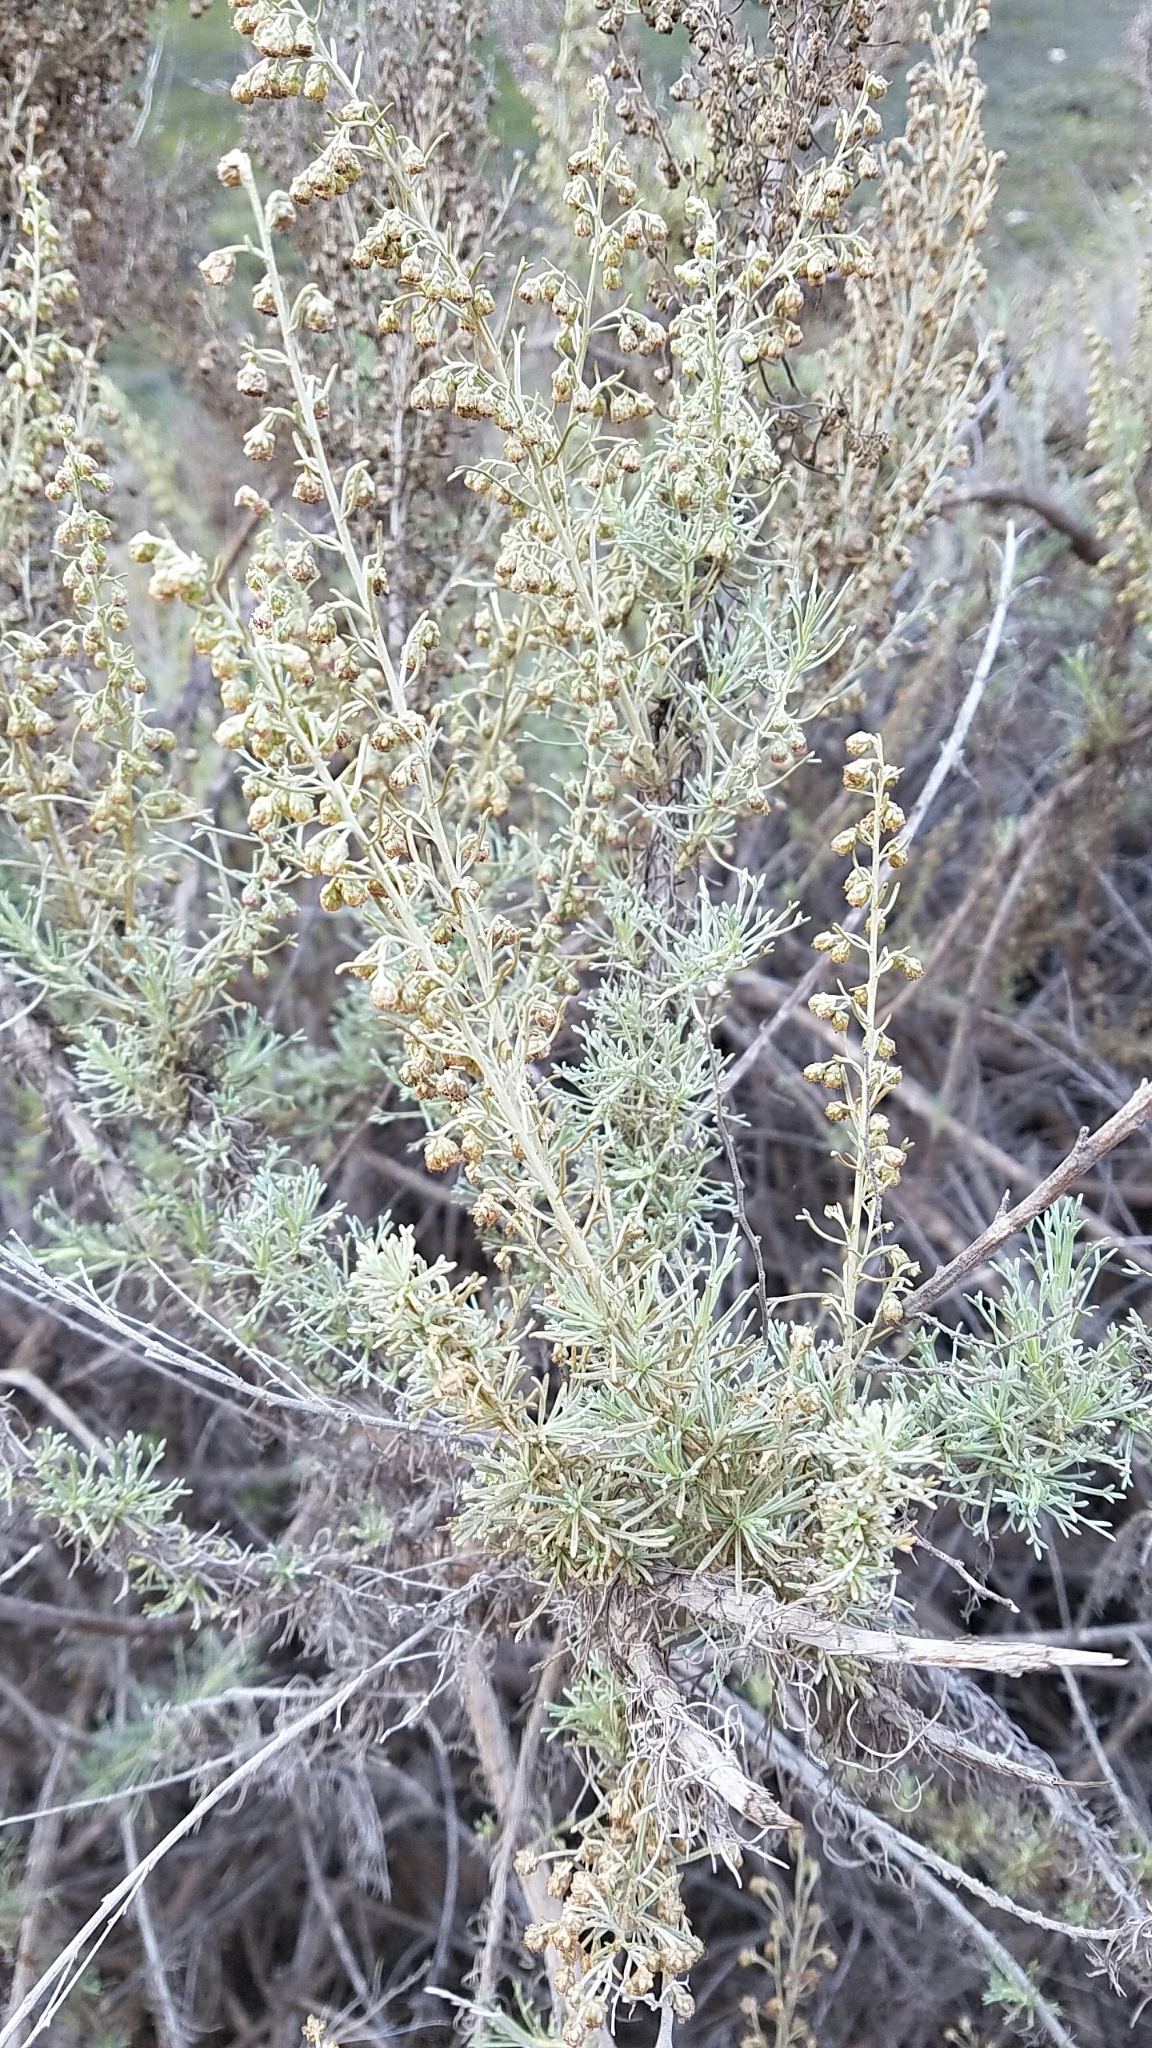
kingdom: Plantae
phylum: Tracheophyta
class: Magnoliopsida
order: Asterales
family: Asteraceae
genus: Artemisia
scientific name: Artemisia californica
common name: California sagebrush
